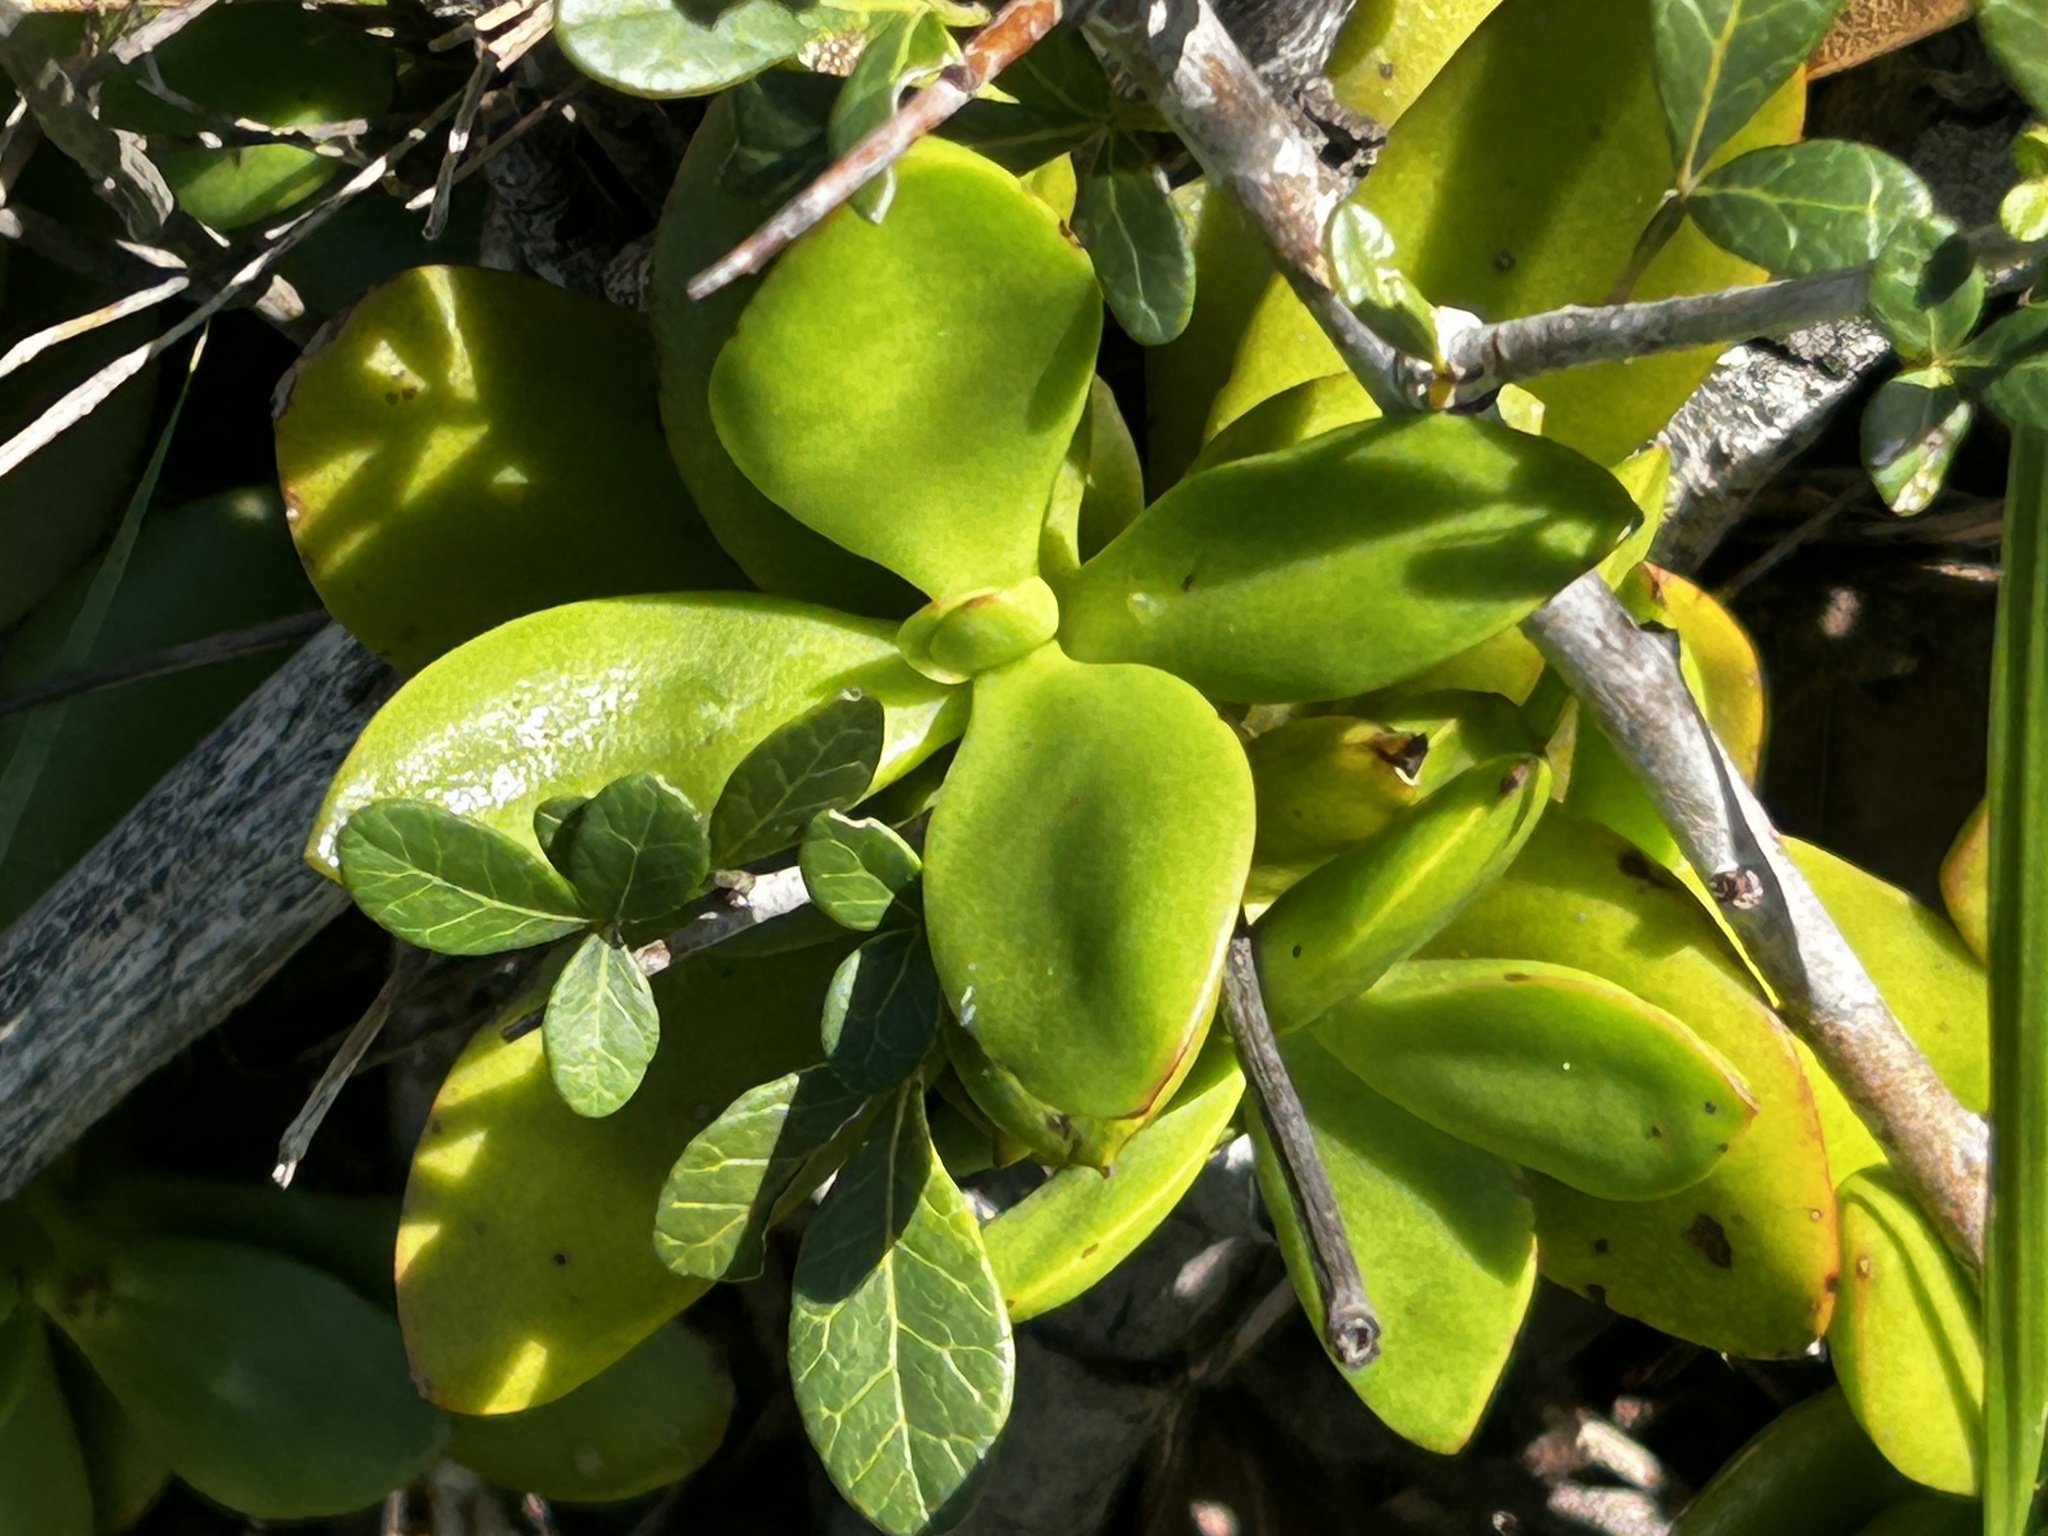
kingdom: Plantae
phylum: Tracheophyta
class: Magnoliopsida
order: Saxifragales
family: Crassulaceae
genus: Crassula
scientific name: Crassula cultrata
